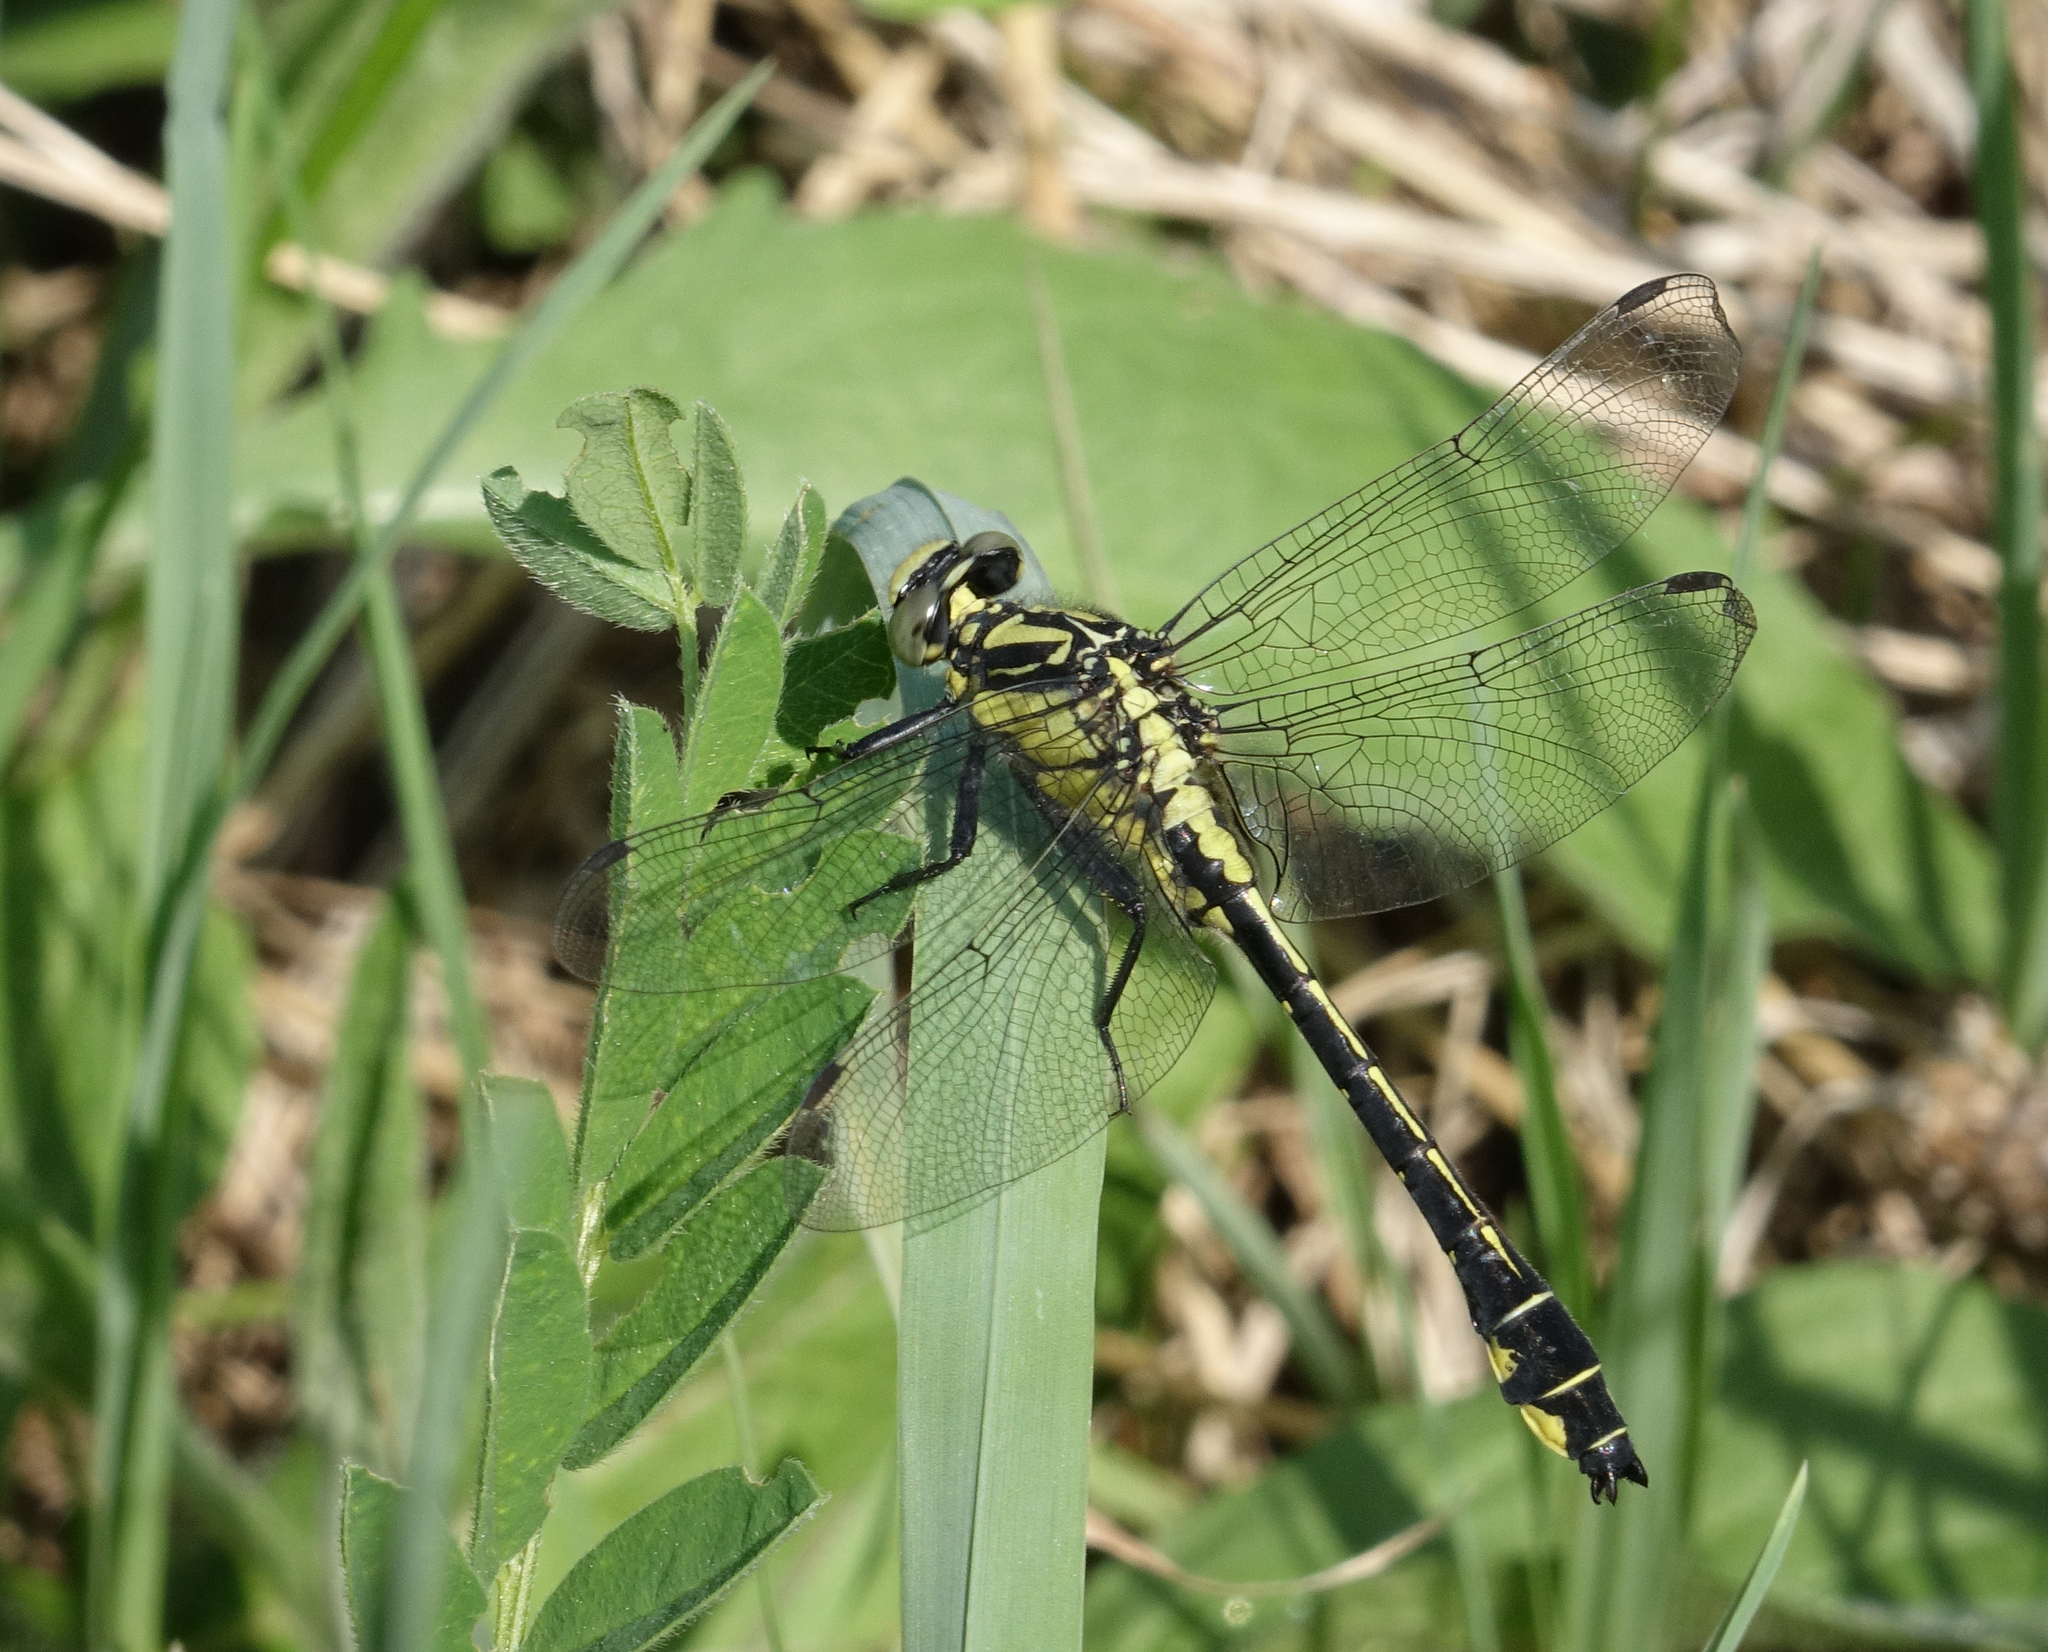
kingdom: Animalia
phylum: Arthropoda
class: Insecta
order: Odonata
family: Gomphidae
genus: Gomphus
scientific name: Gomphus vulgatissimus
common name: Club-tailed dragonfly
